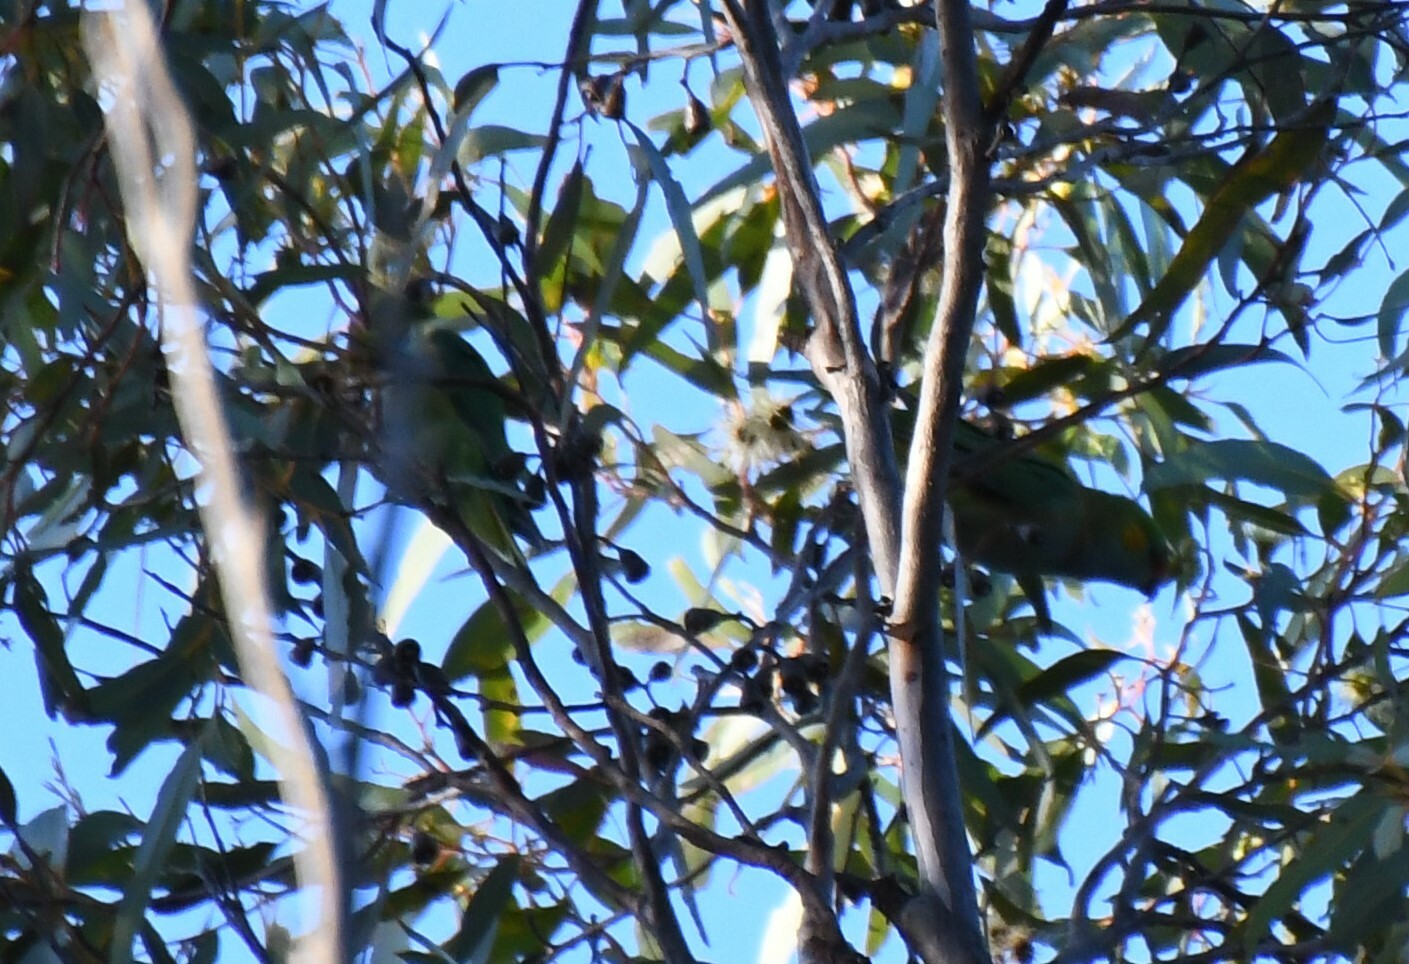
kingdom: Animalia
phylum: Chordata
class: Aves
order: Psittaciformes
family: Psittaculidae
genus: Parvipsitta
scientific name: Parvipsitta porphyrocephala
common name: Purple-crowned lorikeet
